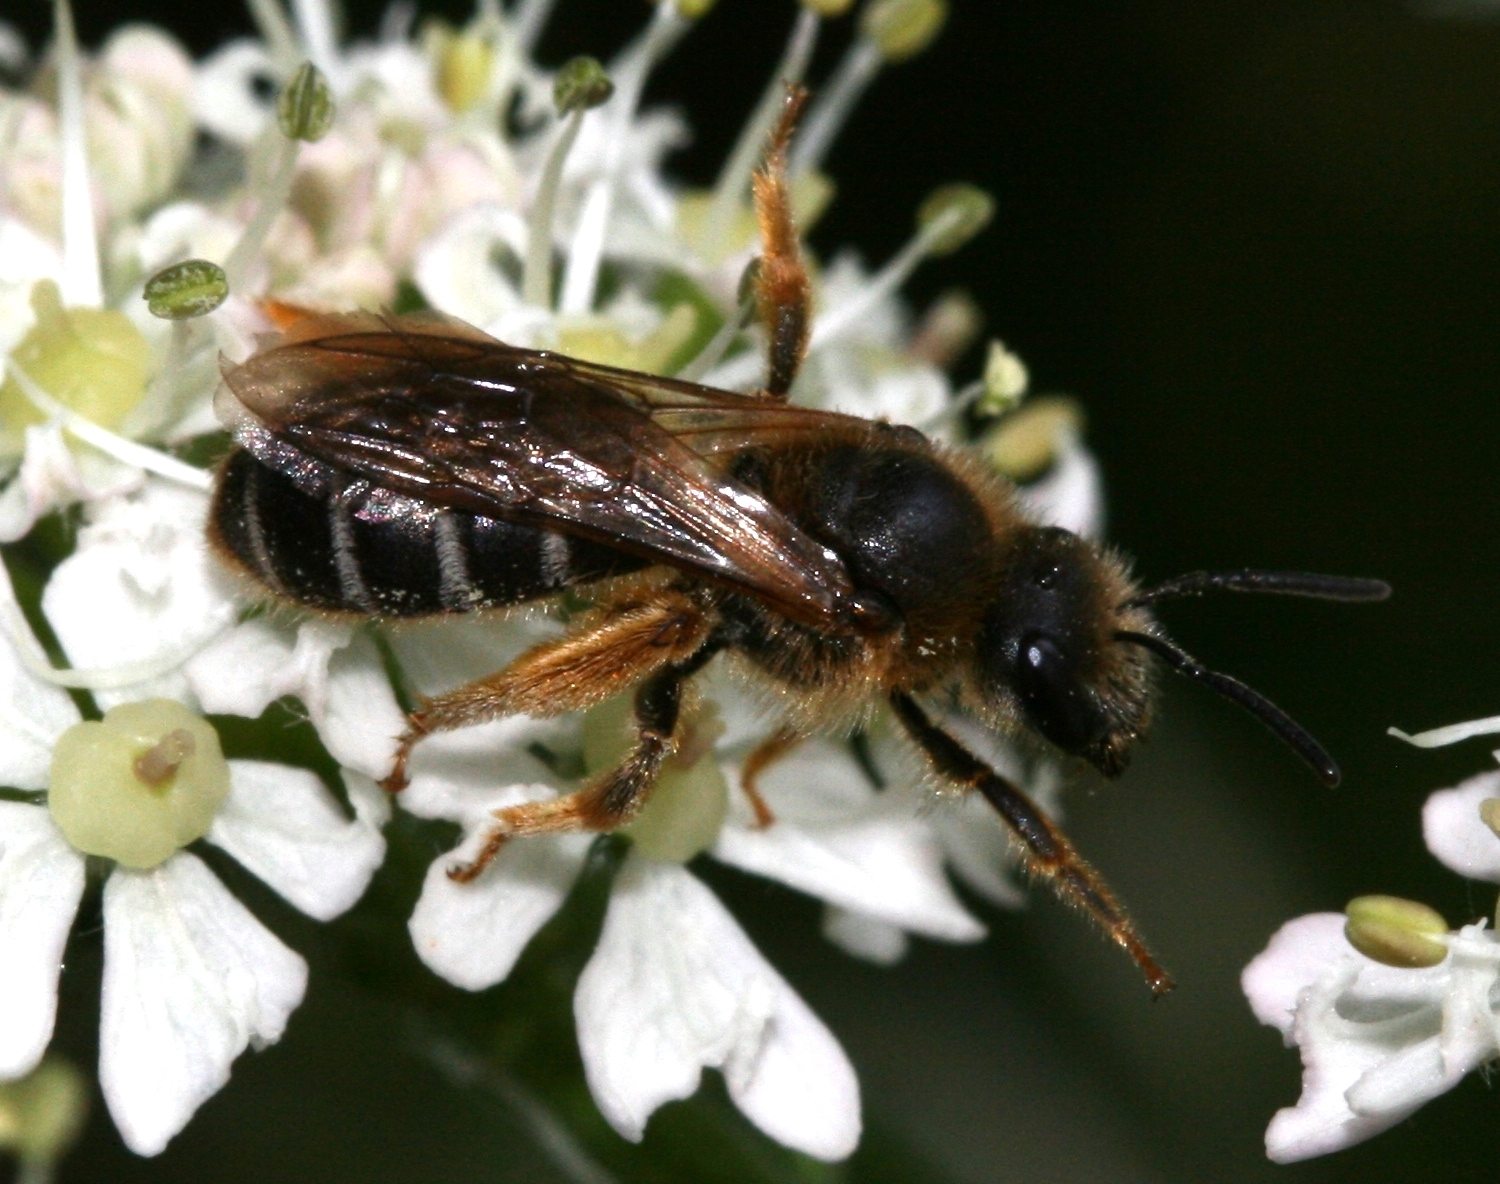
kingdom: Animalia
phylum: Arthropoda
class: Insecta
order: Hymenoptera
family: Halictidae
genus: Halictus
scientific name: Halictus rubicundus
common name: Orange-legged furrow bee
